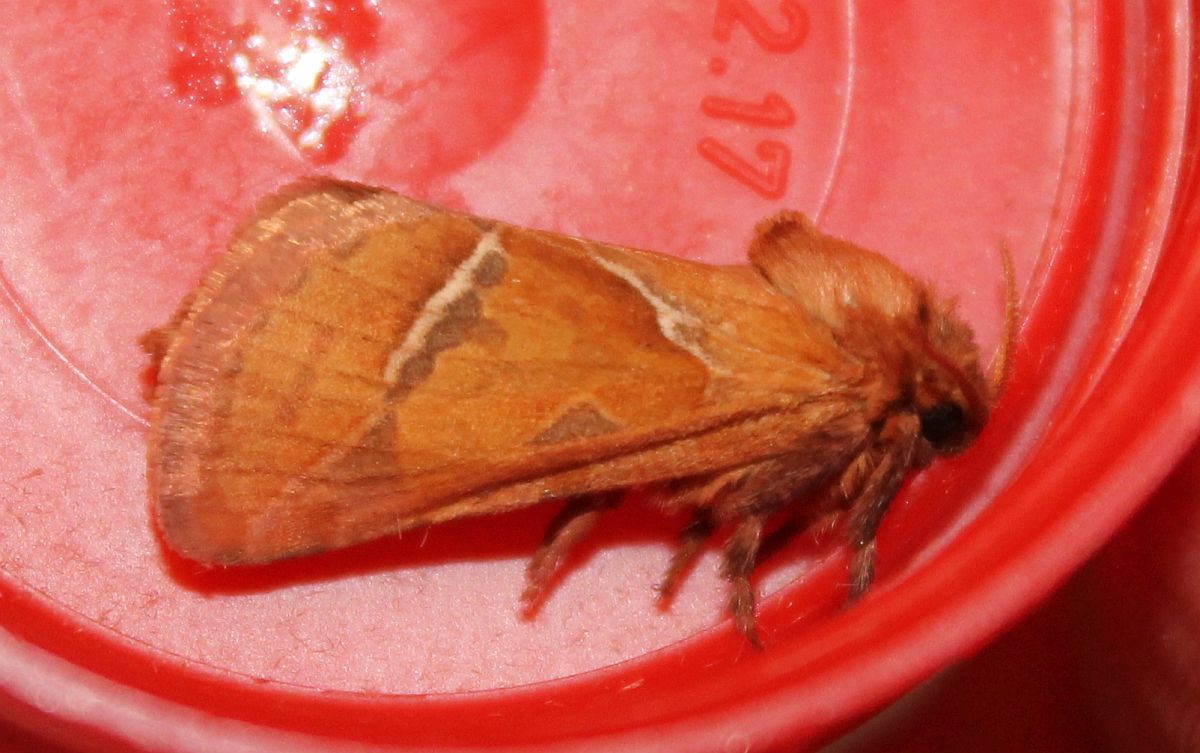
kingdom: Animalia
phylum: Arthropoda
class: Insecta
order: Lepidoptera
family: Hepialidae
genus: Triodia
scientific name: Triodia sylvina
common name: Orange swift
